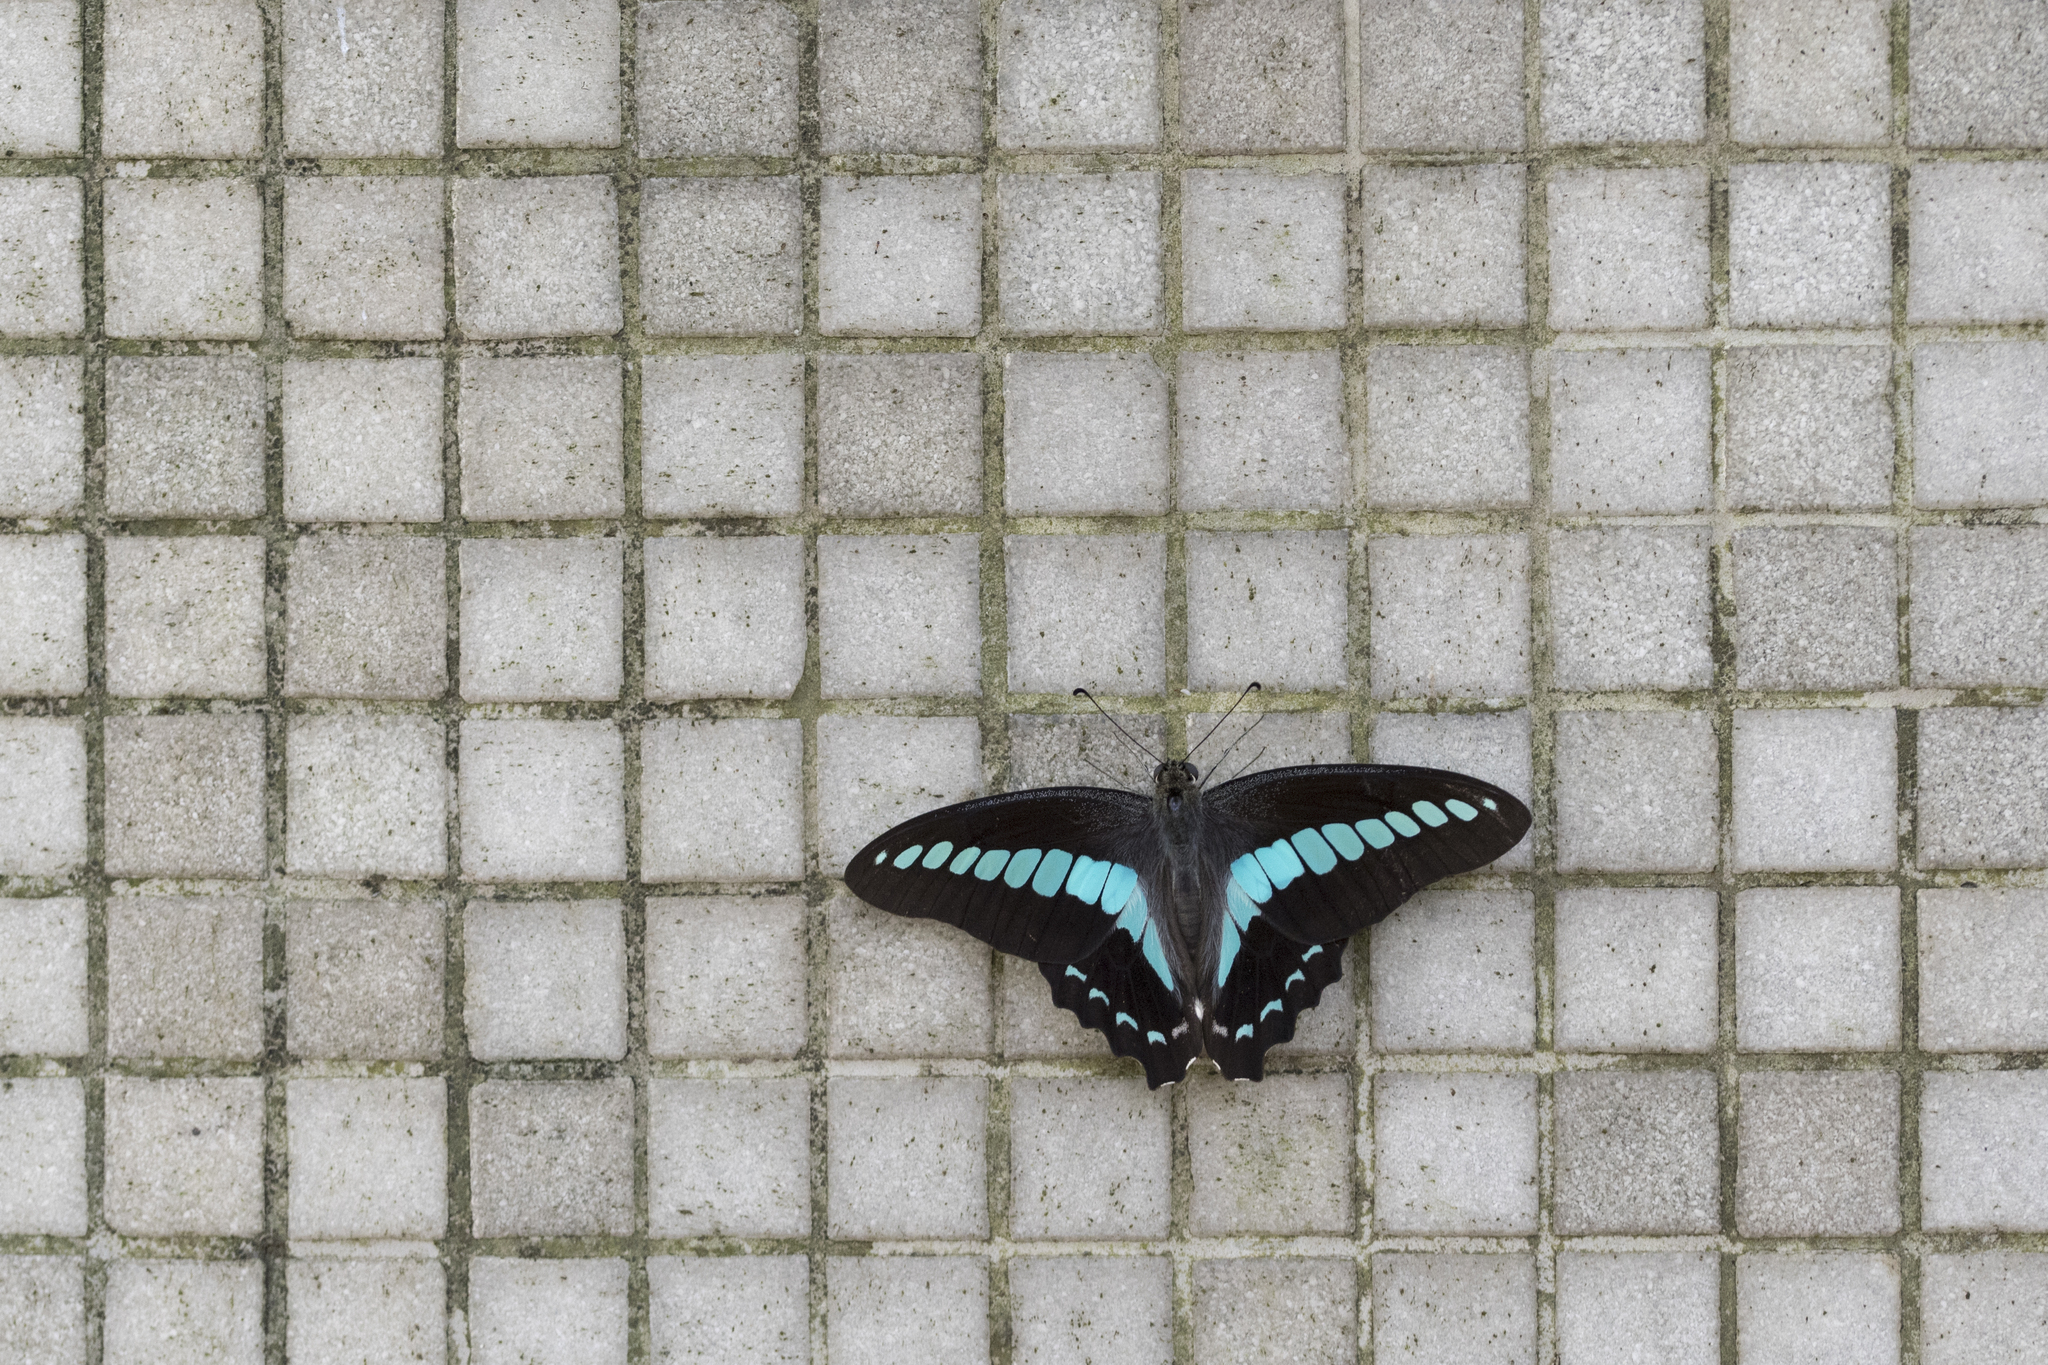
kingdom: Fungi
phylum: Ascomycota
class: Sordariomycetes
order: Microascales
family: Microascaceae
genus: Graphium
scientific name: Graphium sarpedon
